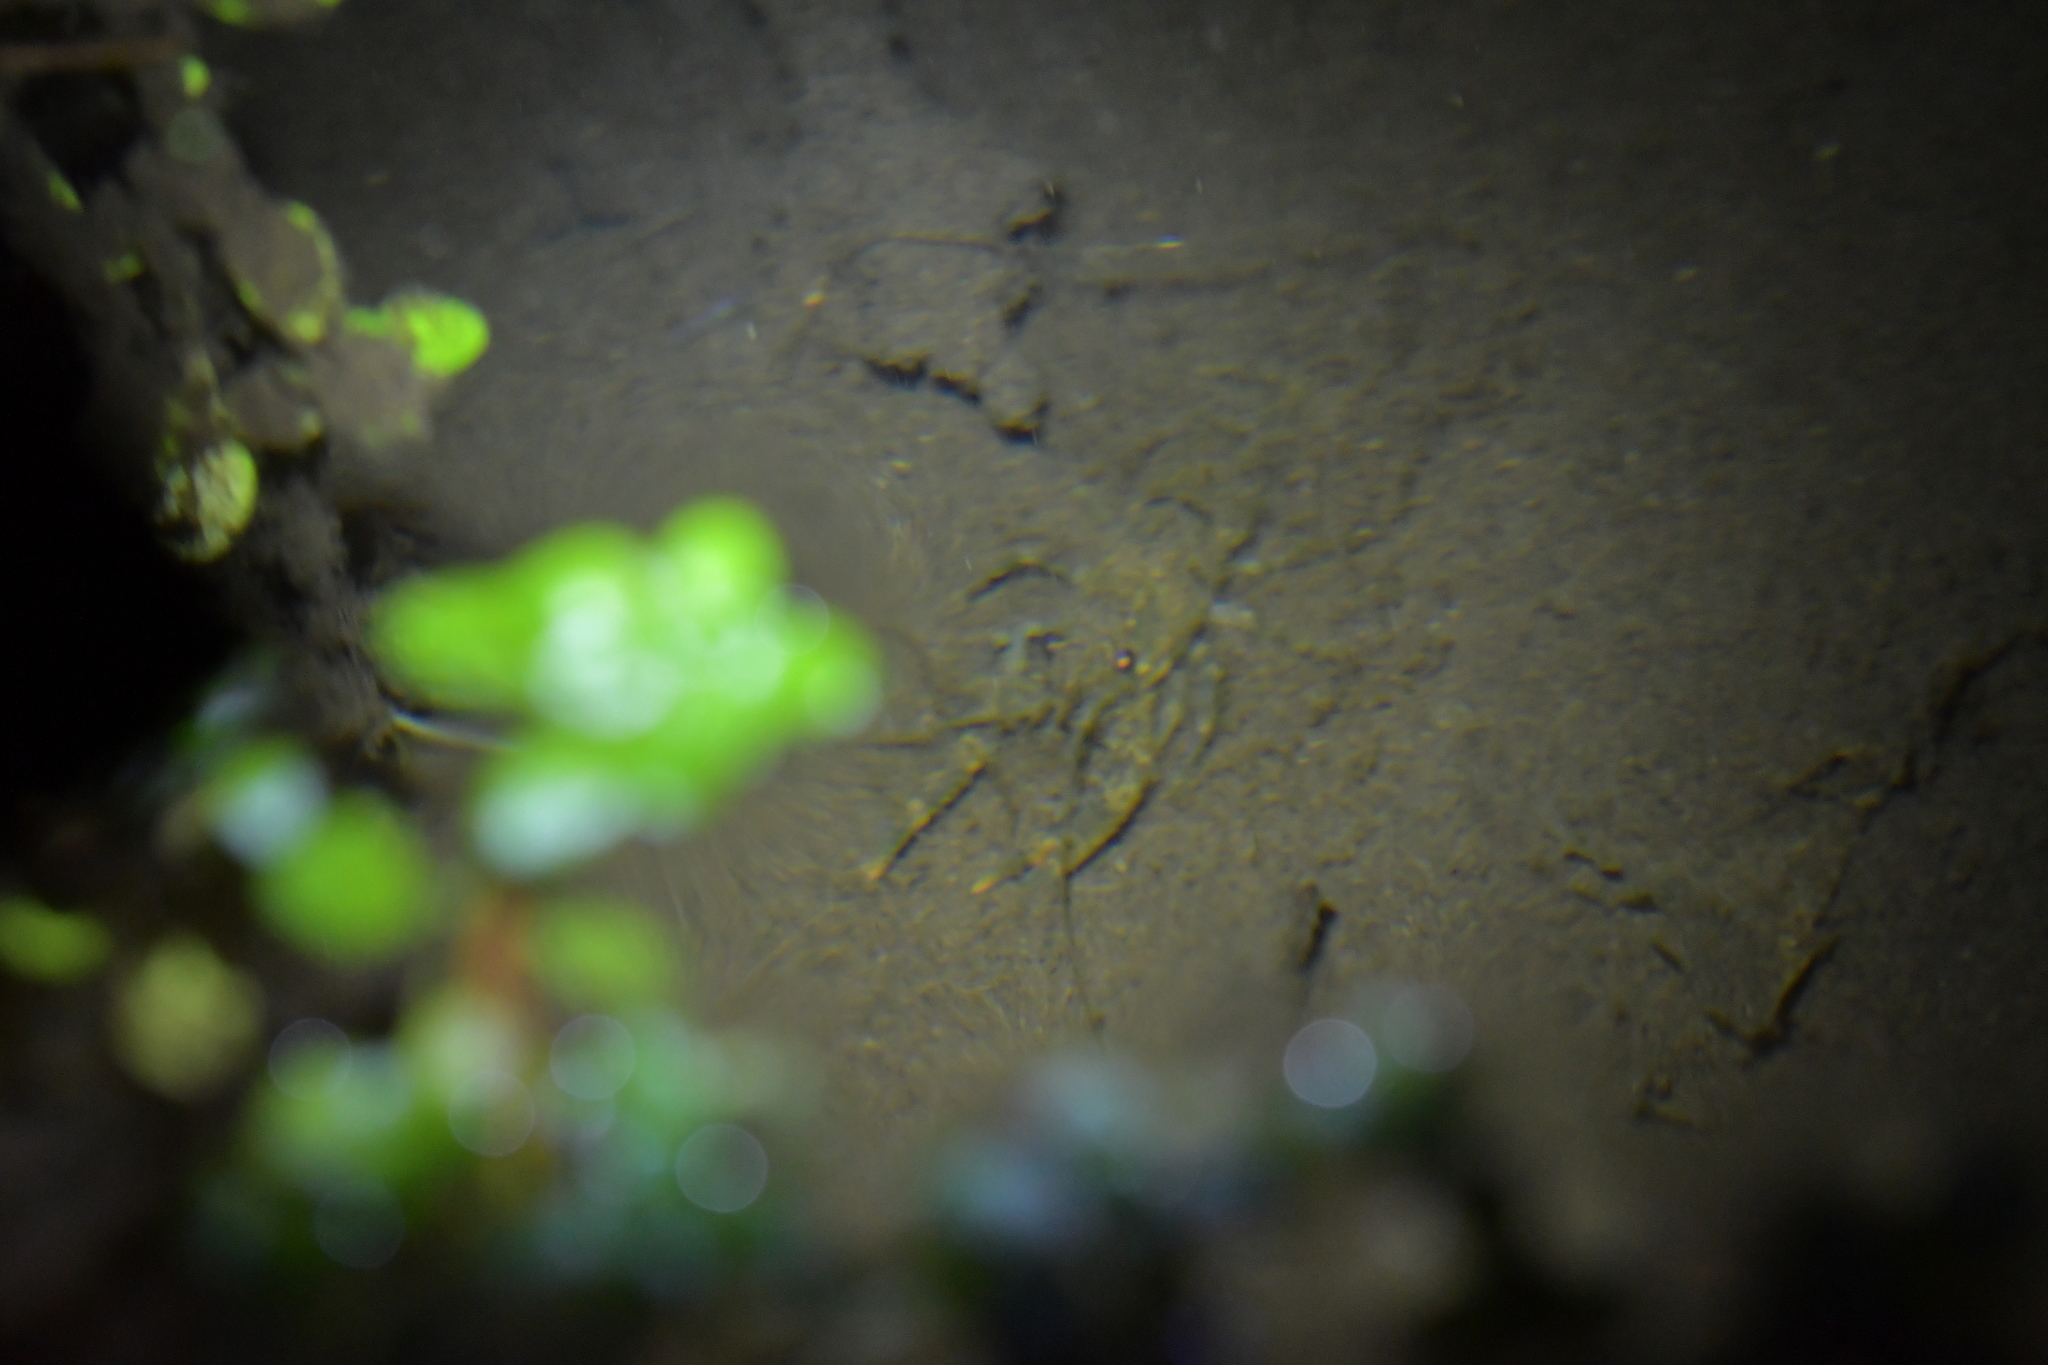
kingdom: Animalia
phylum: Arthropoda
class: Malacostraca
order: Decapoda
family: Parastacidae
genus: Paranephrops
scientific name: Paranephrops planifrons
